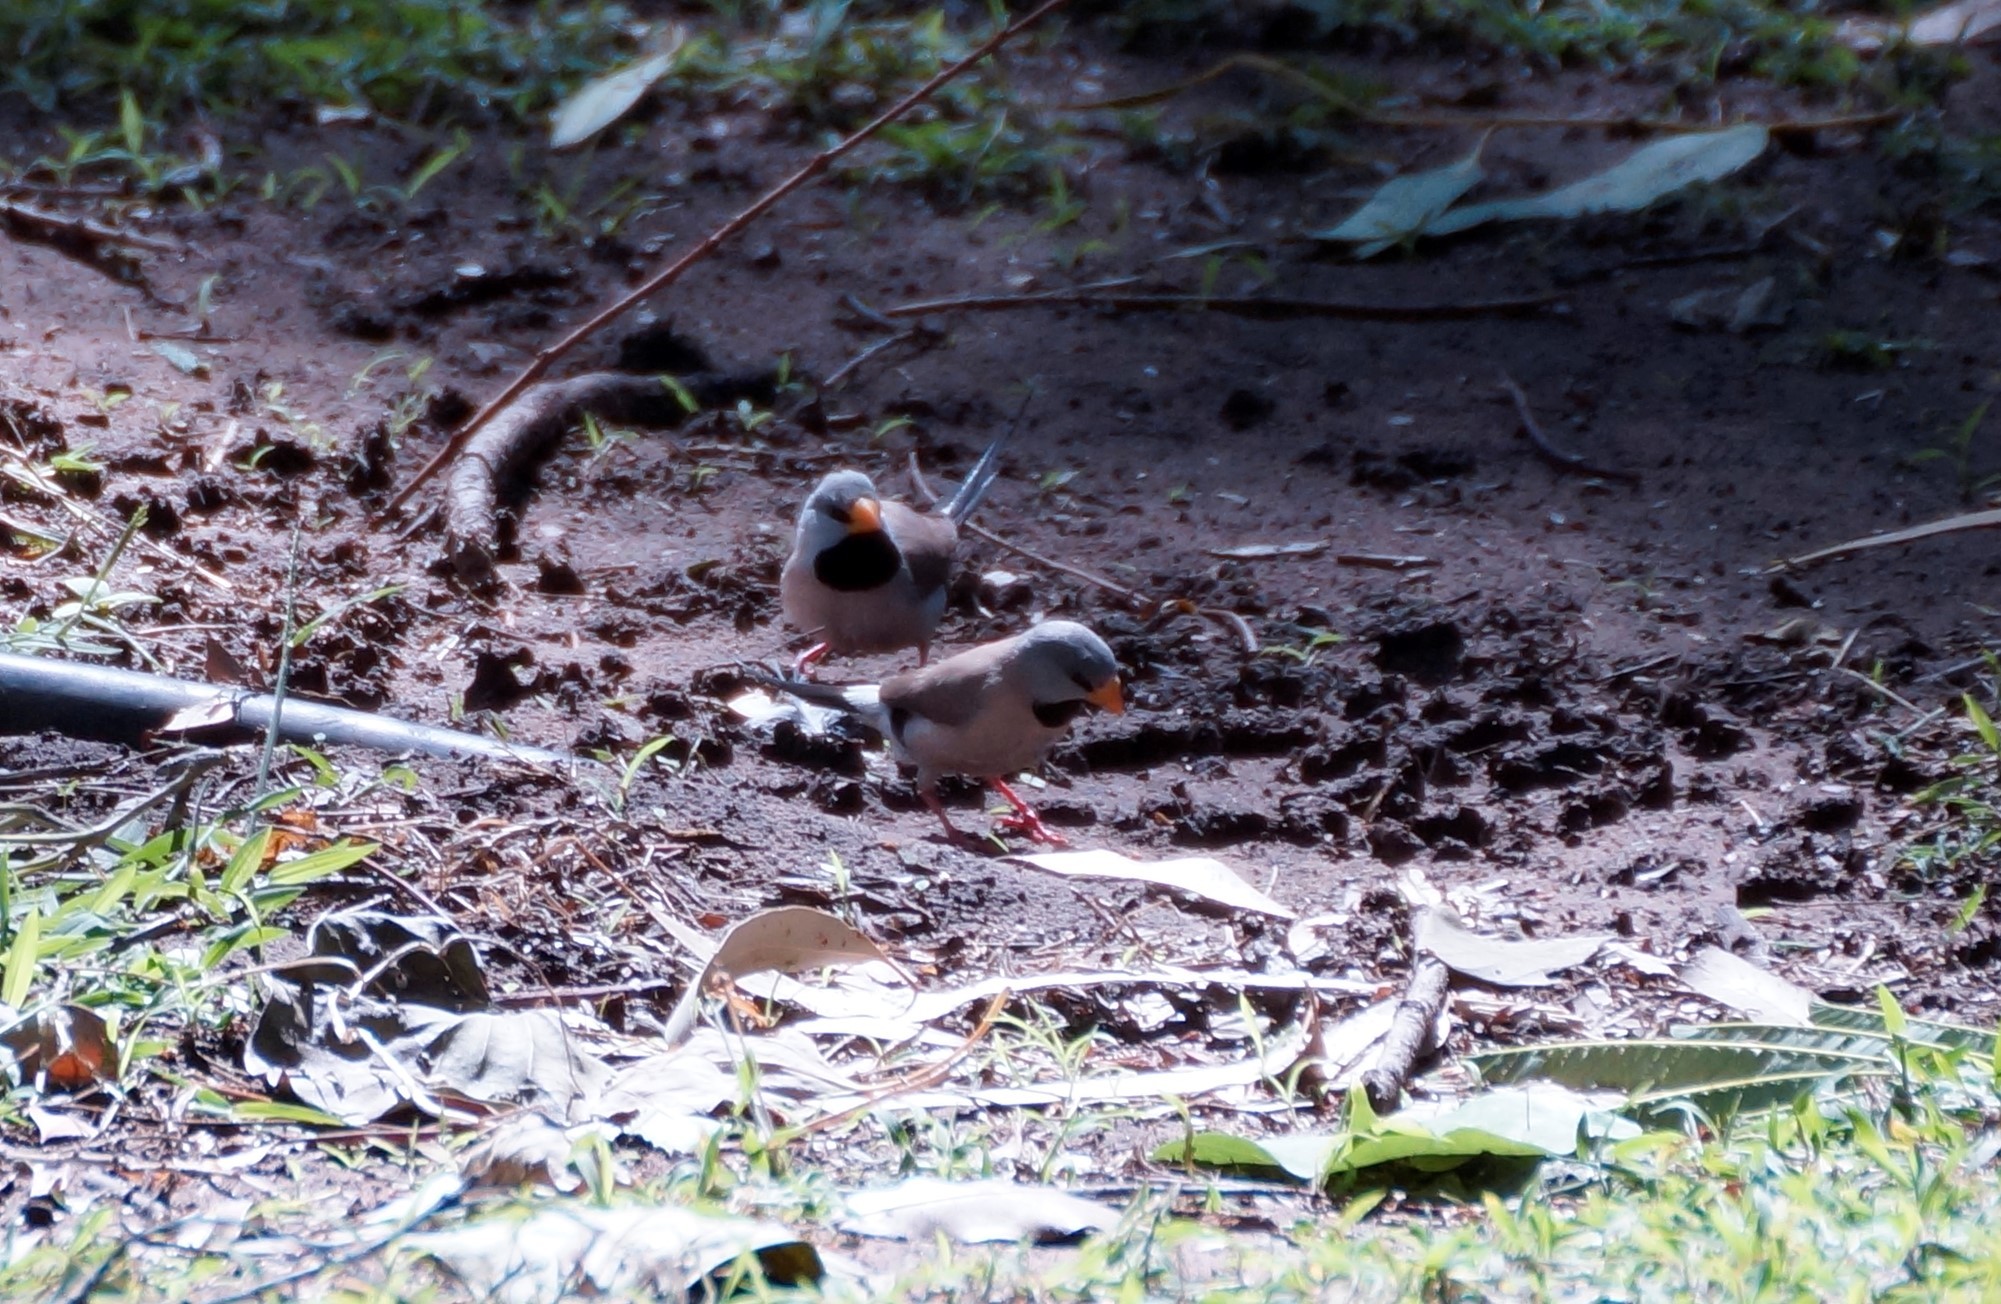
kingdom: Animalia
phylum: Chordata
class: Aves
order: Passeriformes
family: Estrildidae
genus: Poephila
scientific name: Poephila acuticauda
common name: Long-tailed finch
